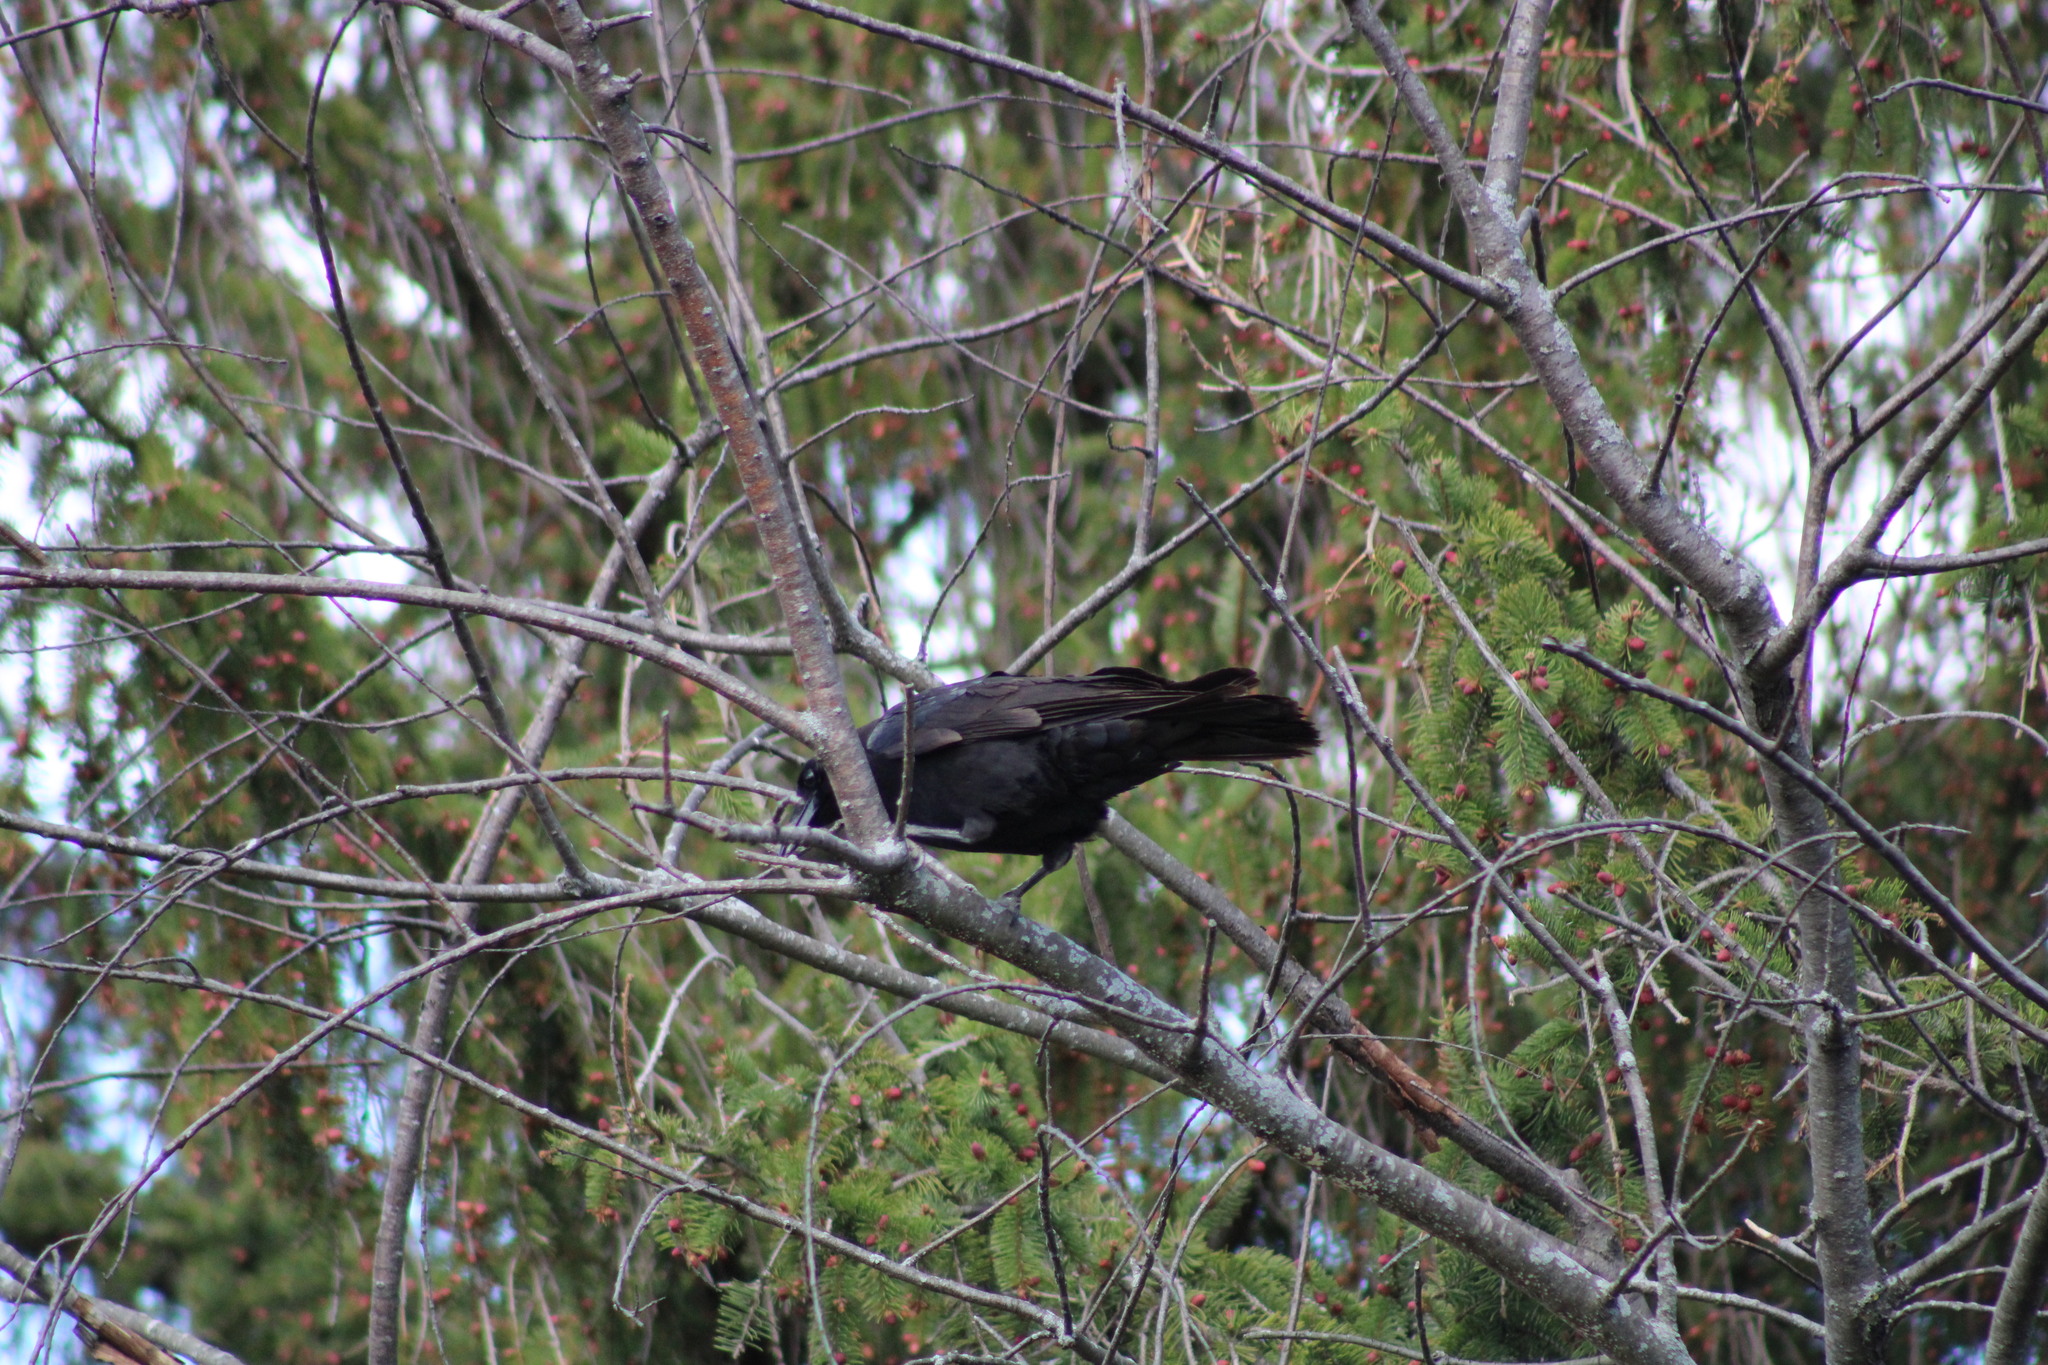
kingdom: Animalia
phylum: Chordata
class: Aves
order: Passeriformes
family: Corvidae
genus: Corvus
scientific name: Corvus brachyrhynchos
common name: American crow
